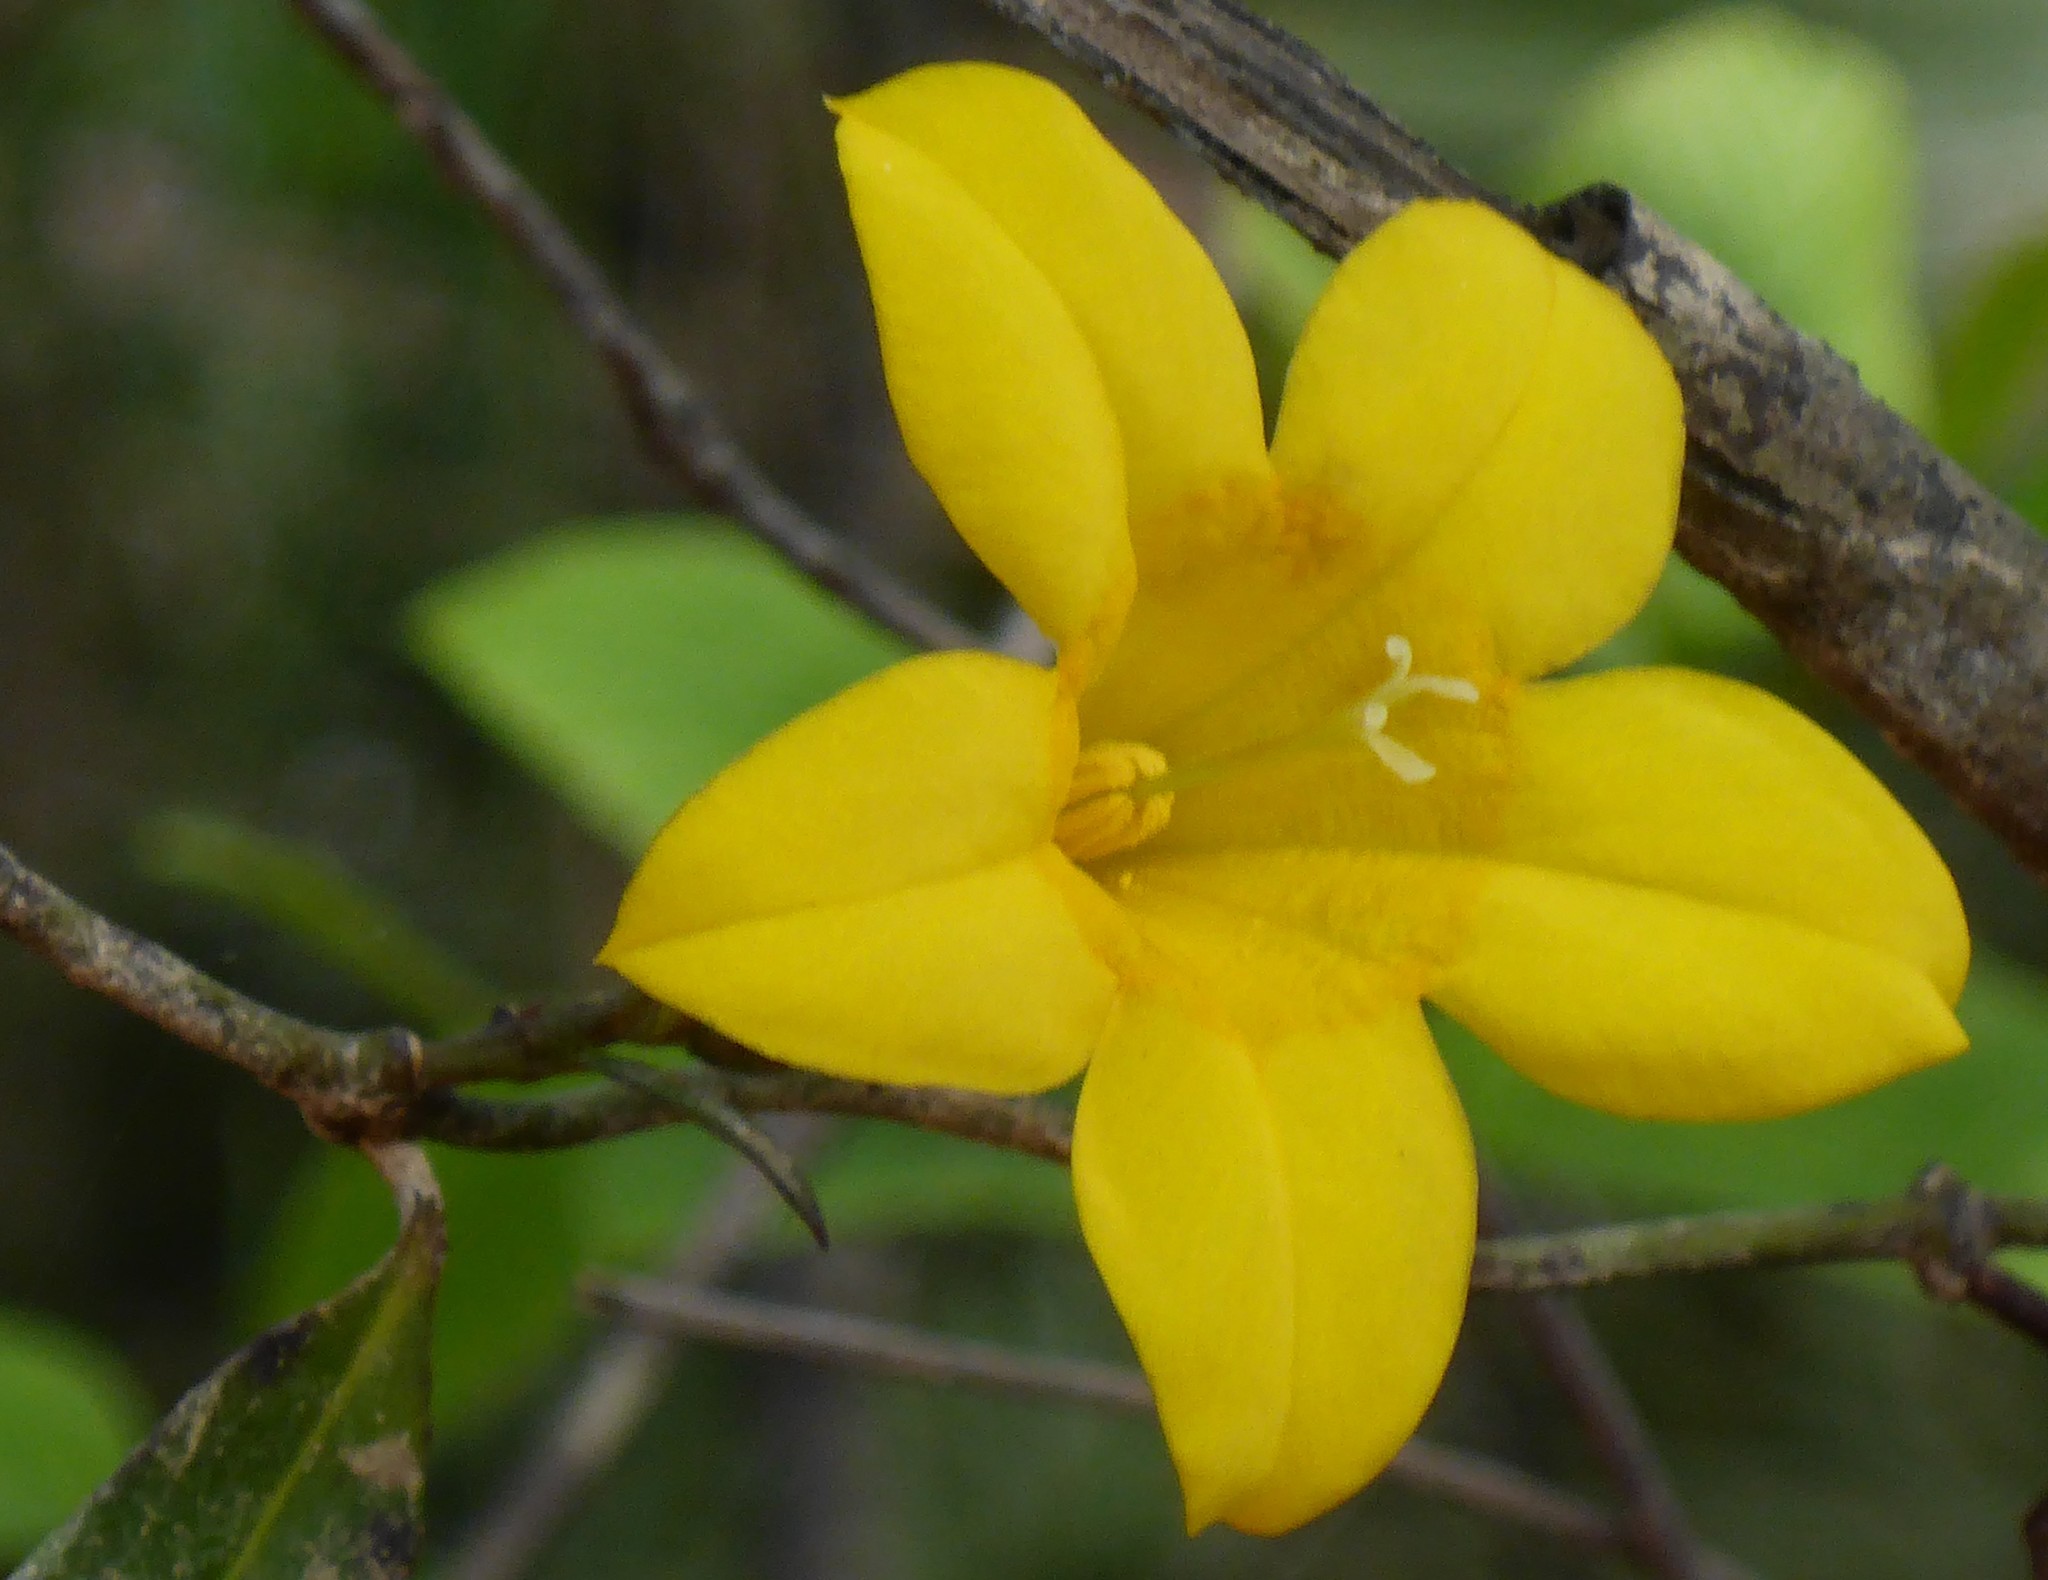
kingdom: Plantae
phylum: Tracheophyta
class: Magnoliopsida
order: Gentianales
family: Gelsemiaceae
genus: Gelsemium
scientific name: Gelsemium rankinii
